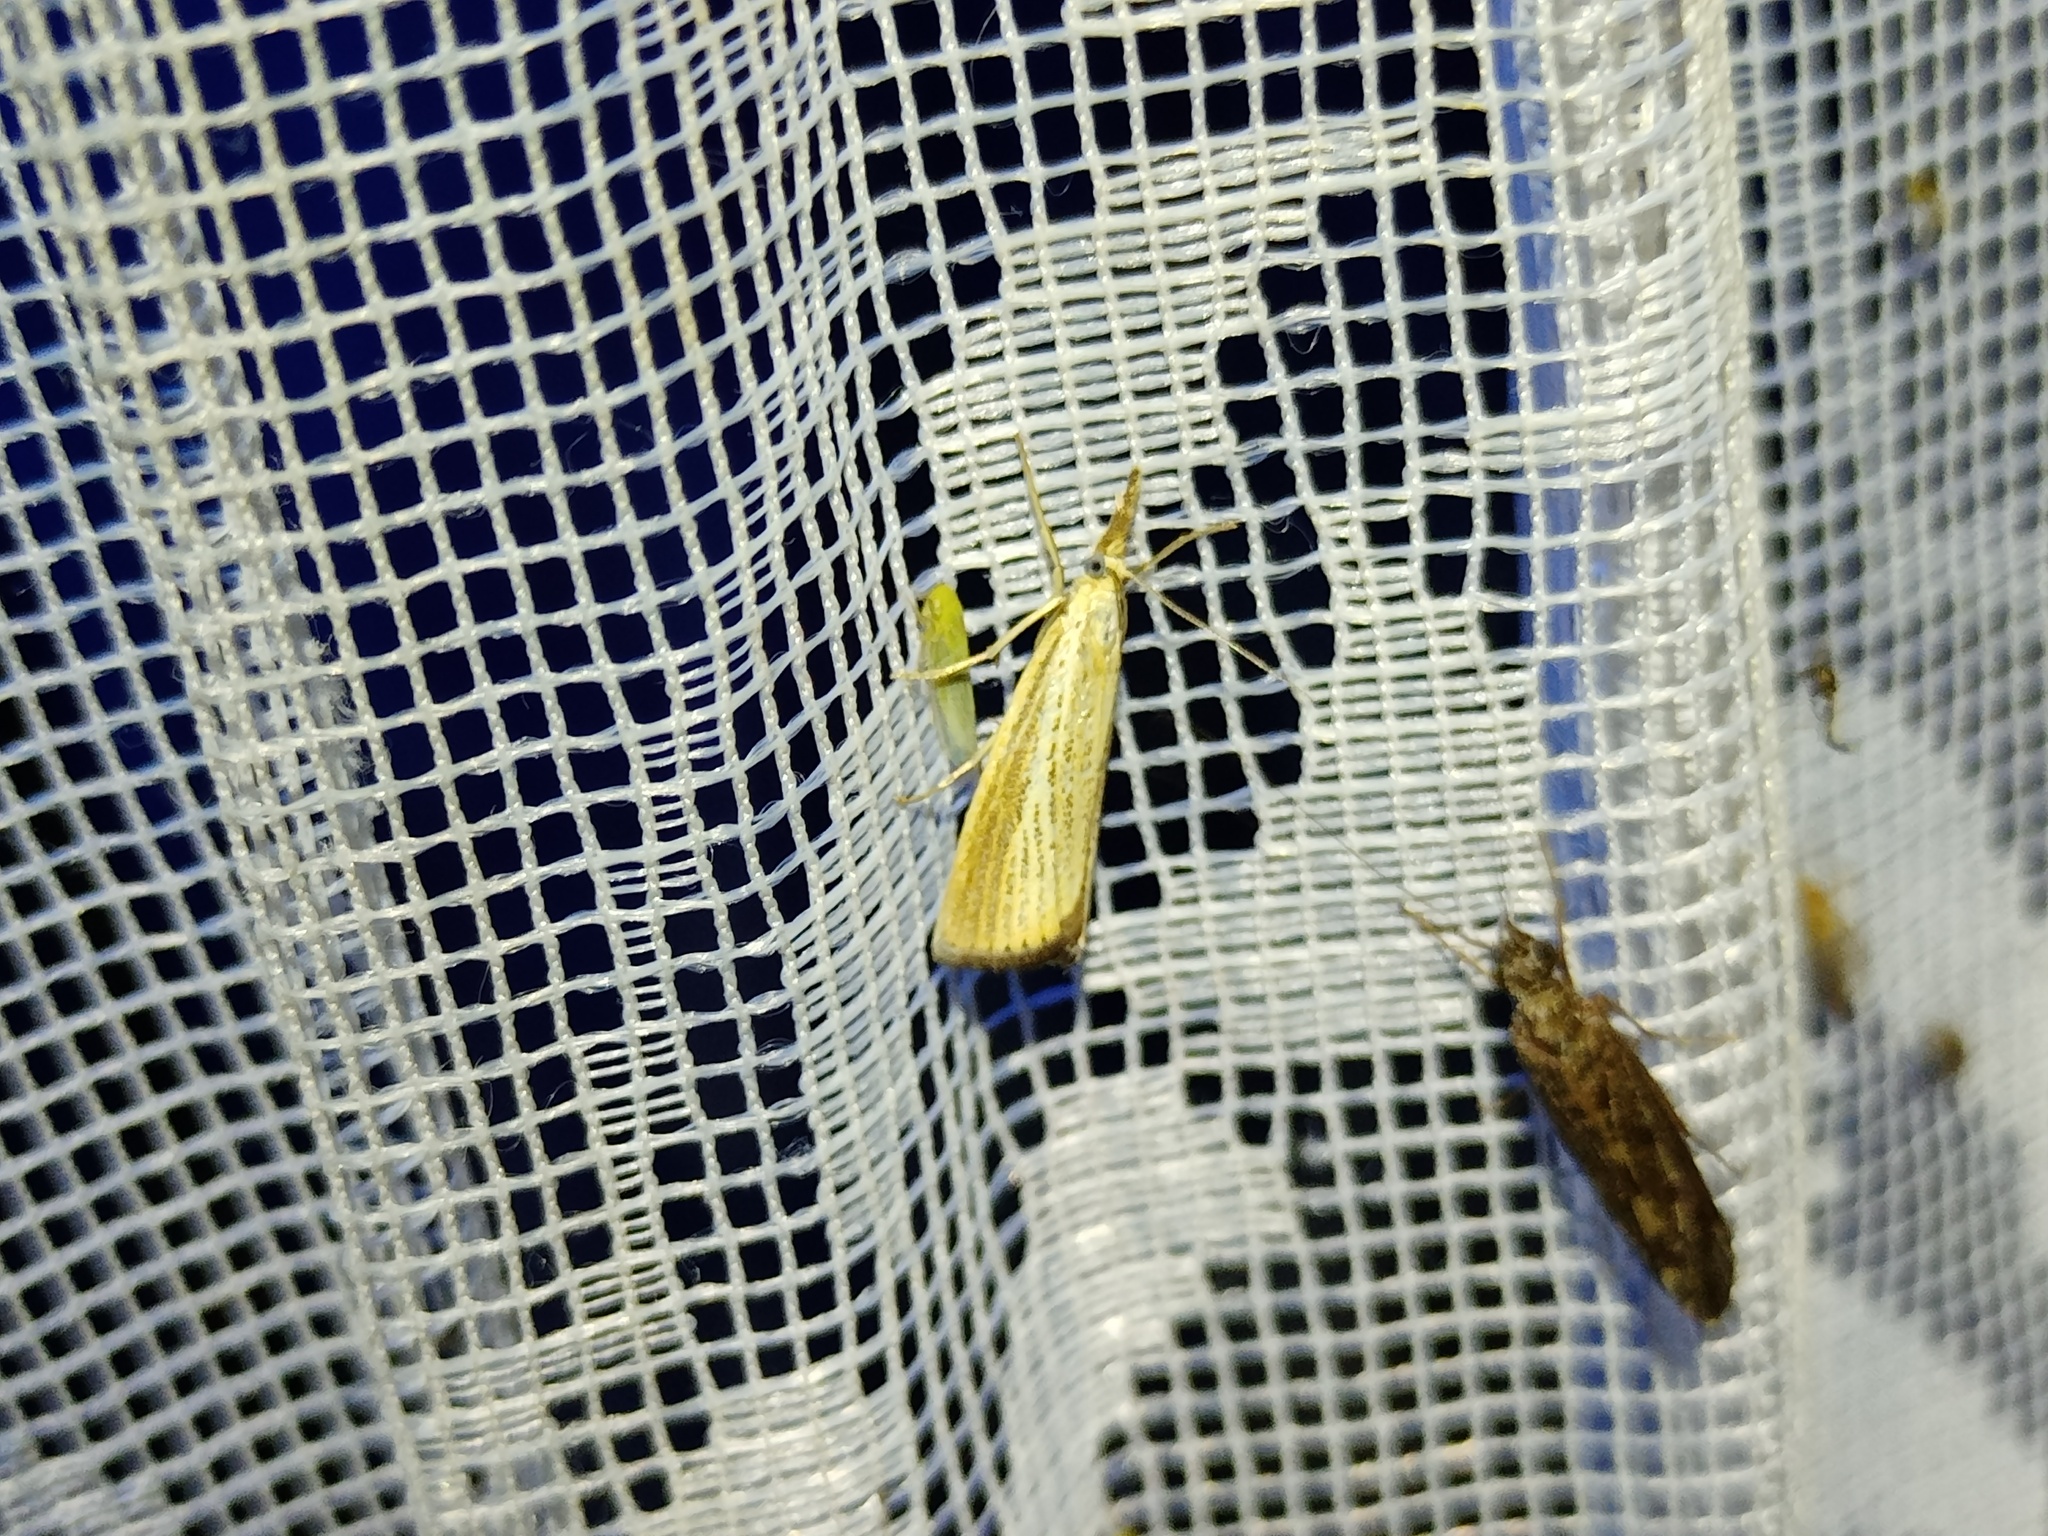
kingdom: Animalia
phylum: Arthropoda
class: Insecta
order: Lepidoptera
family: Crambidae
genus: Agriphila
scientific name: Agriphila straminella
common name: Straw grass-veneer
